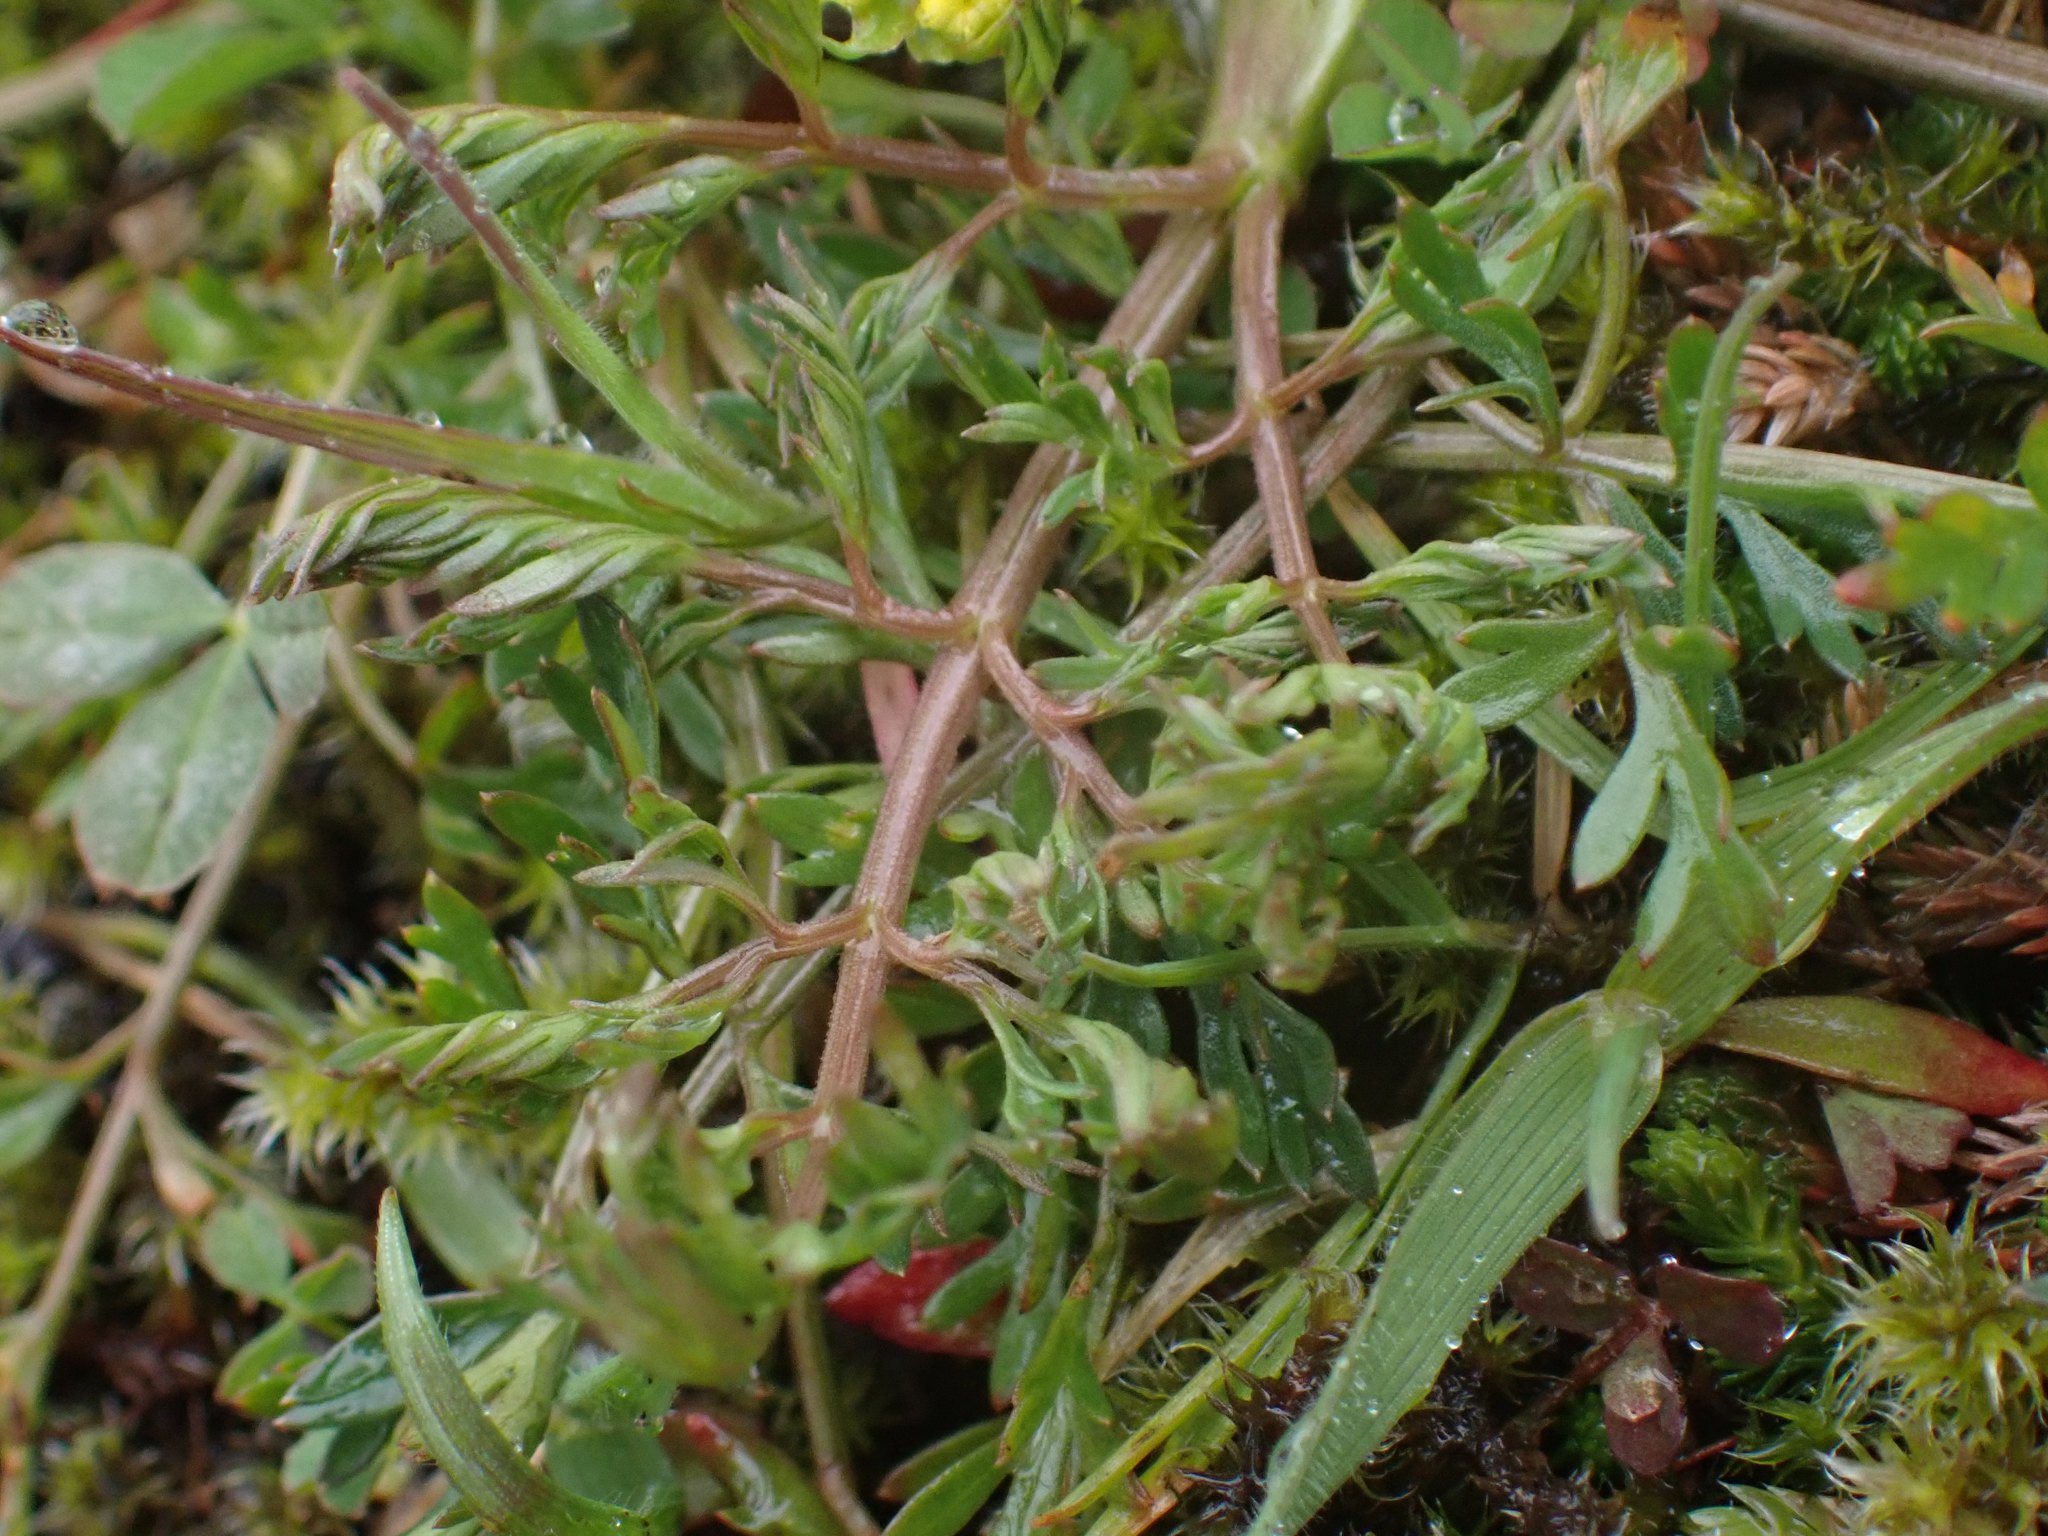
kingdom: Plantae
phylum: Tracheophyta
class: Magnoliopsida
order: Apiales
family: Apiaceae
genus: Lomatium
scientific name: Lomatium utriculatum
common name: Fine-leaf desert-parsley
